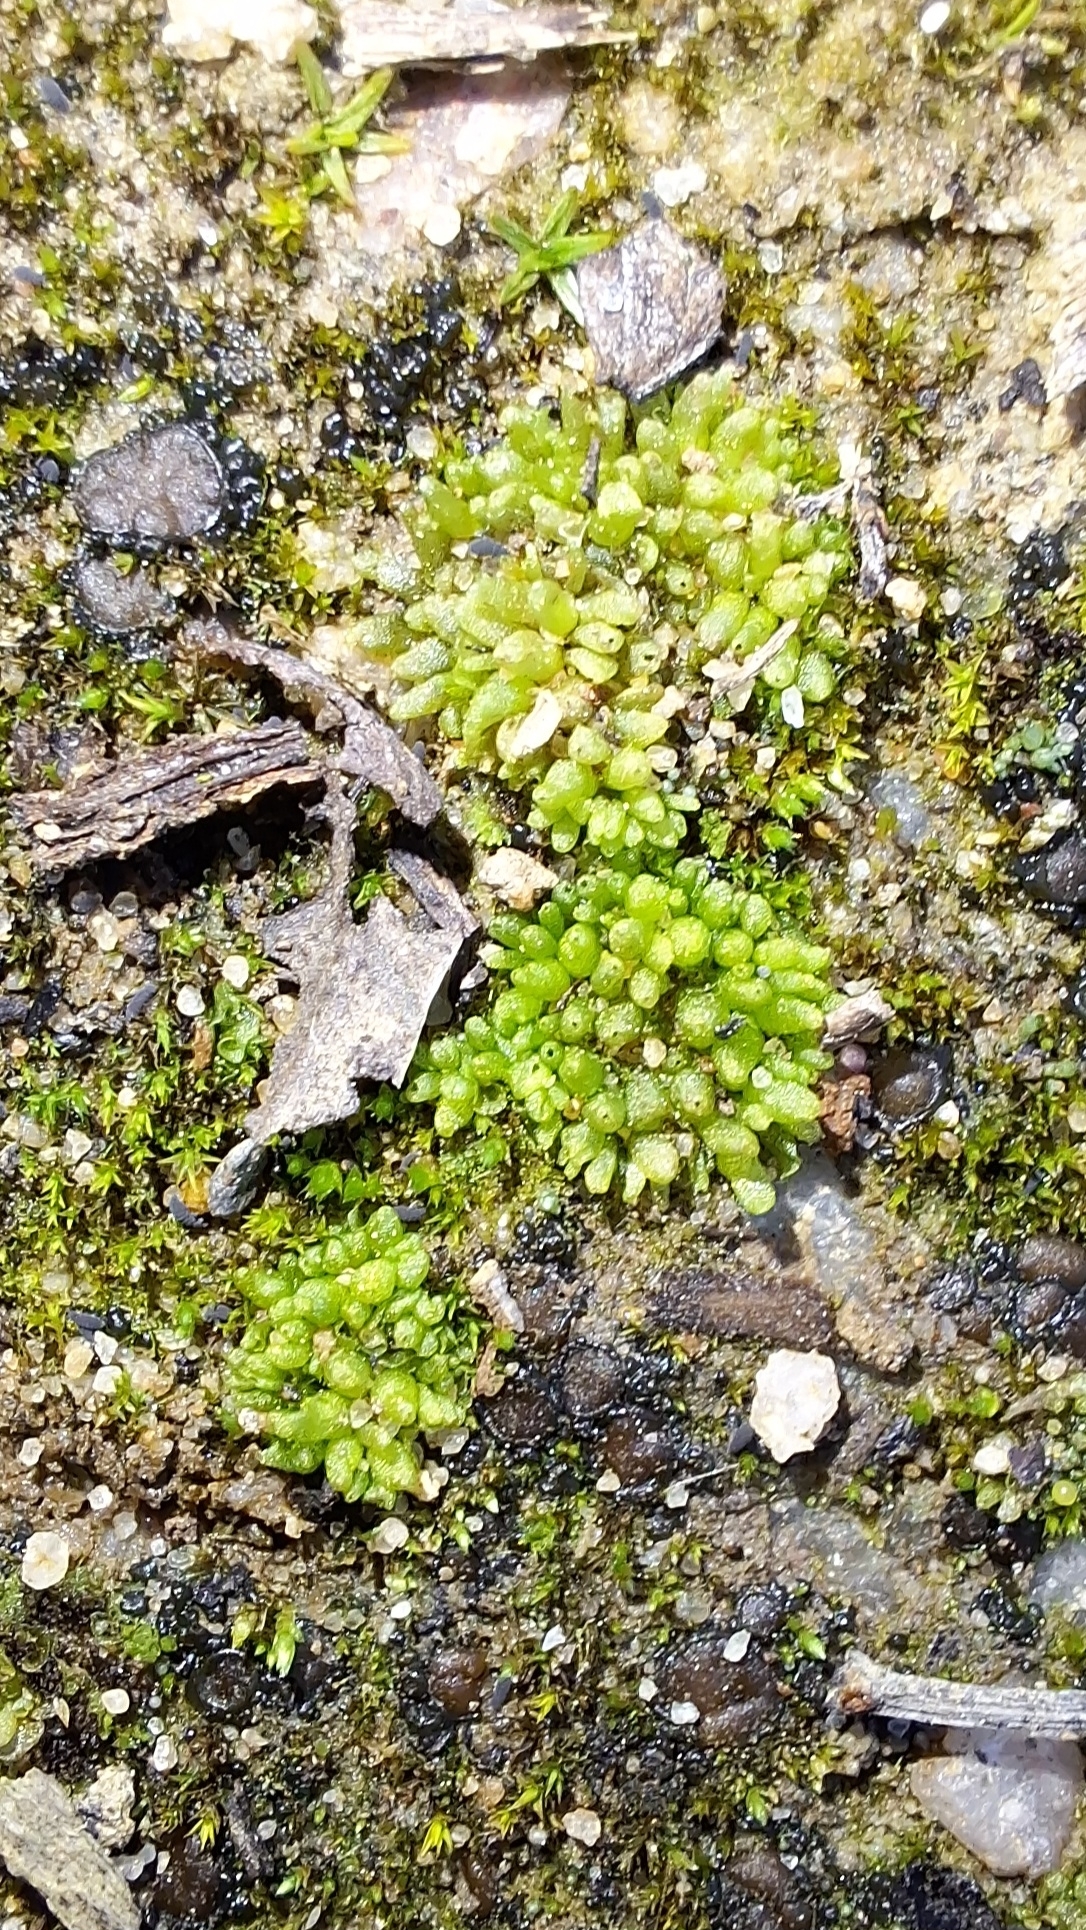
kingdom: Plantae
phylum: Marchantiophyta
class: Marchantiopsida
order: Sphaerocarpales
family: Sphaerocarpaceae
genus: Sphaerocarpos
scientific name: Sphaerocarpos texanus
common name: Texas balloonwort
